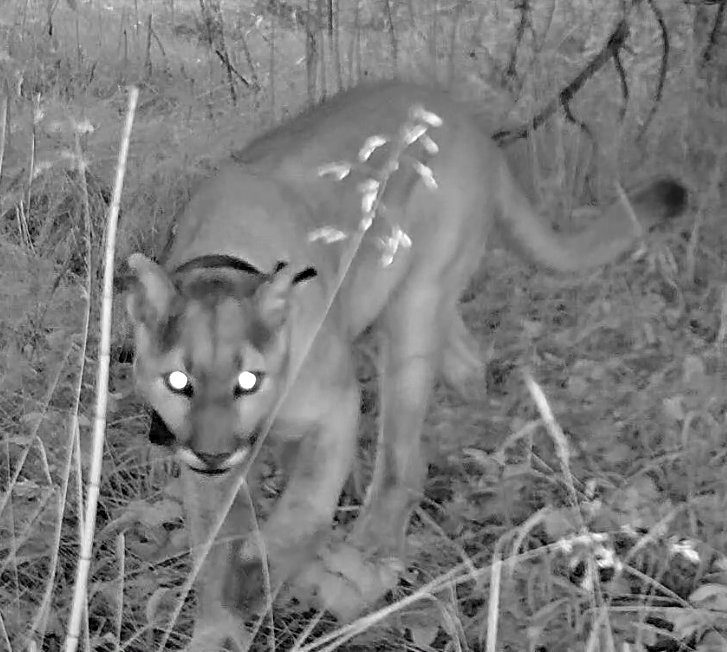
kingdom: Animalia
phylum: Chordata
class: Mammalia
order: Carnivora
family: Felidae
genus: Puma
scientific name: Puma concolor
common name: Puma
